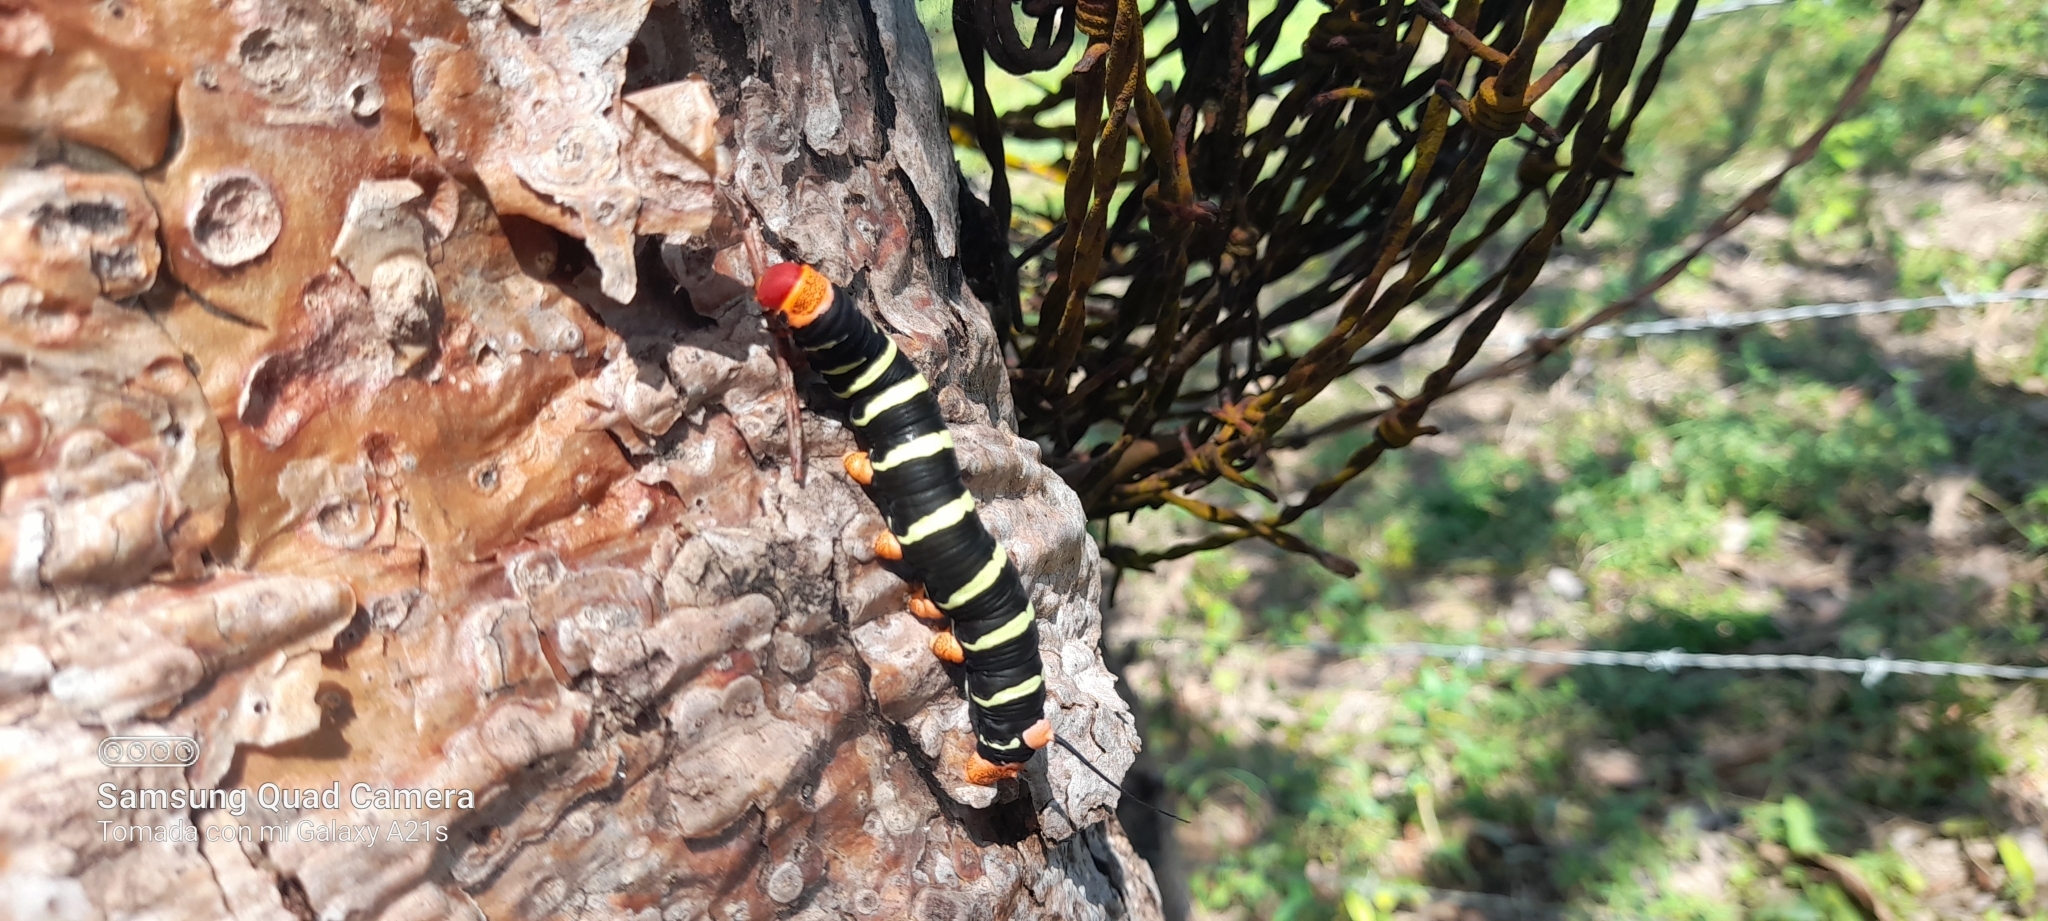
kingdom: Animalia
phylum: Arthropoda
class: Insecta
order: Lepidoptera
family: Sphingidae
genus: Pseudosphinx
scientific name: Pseudosphinx tetrio
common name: Tetrio sphinx
